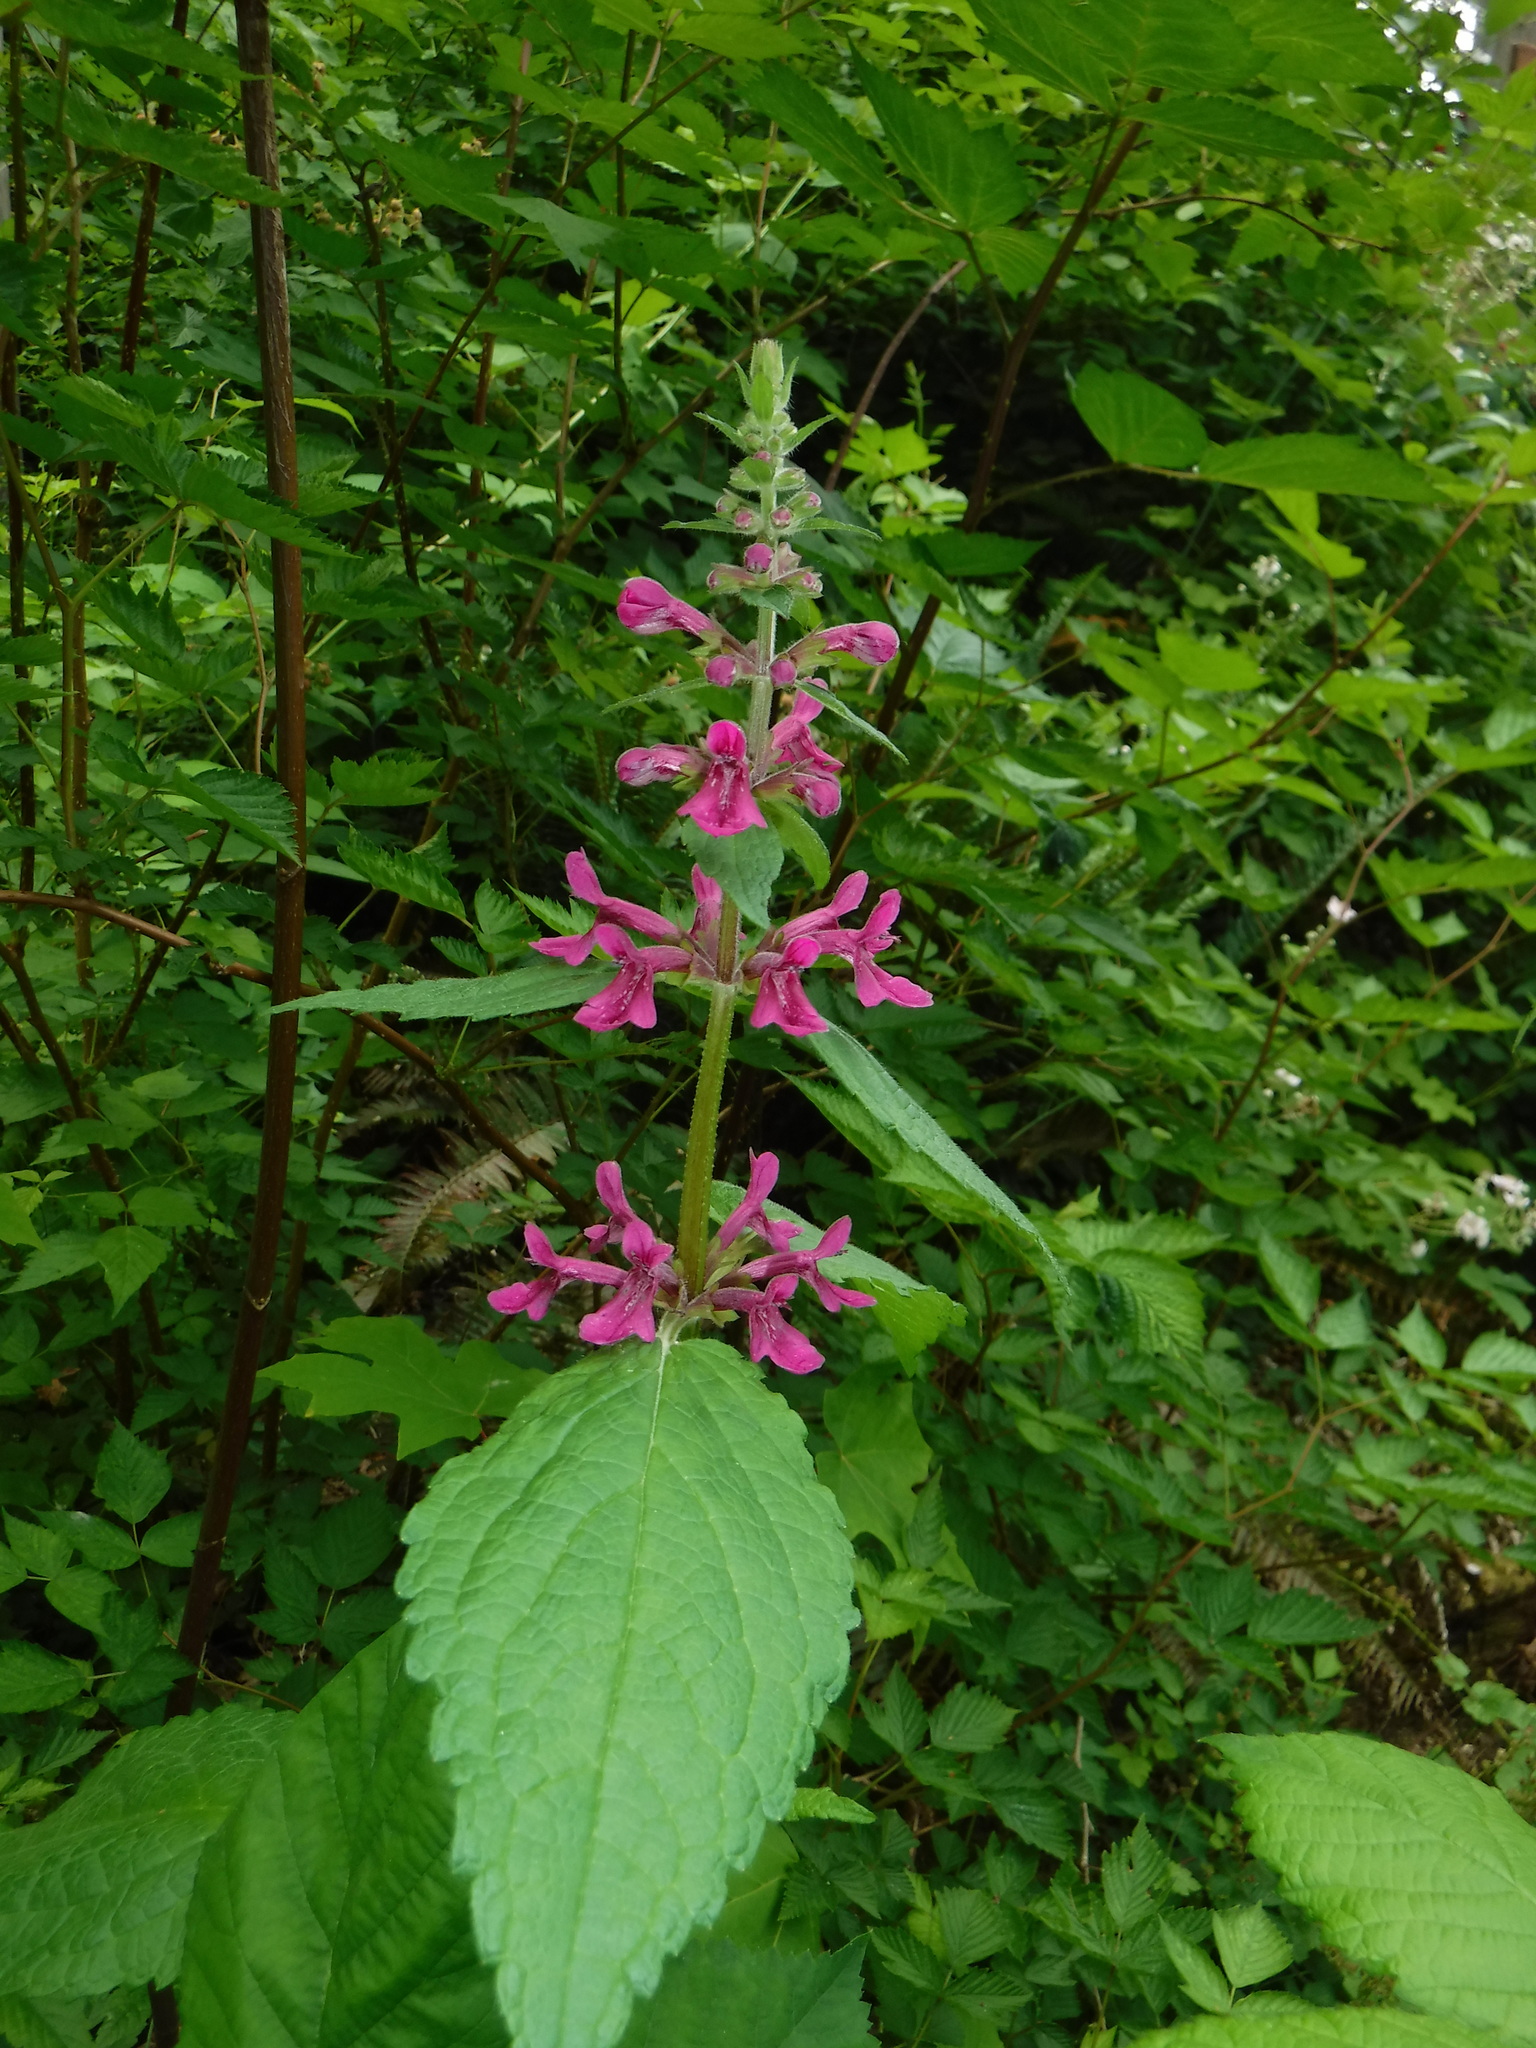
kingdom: Plantae
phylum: Tracheophyta
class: Magnoliopsida
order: Lamiales
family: Lamiaceae
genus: Stachys
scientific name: Stachys chamissonis
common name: Coastal hedge-nettle
